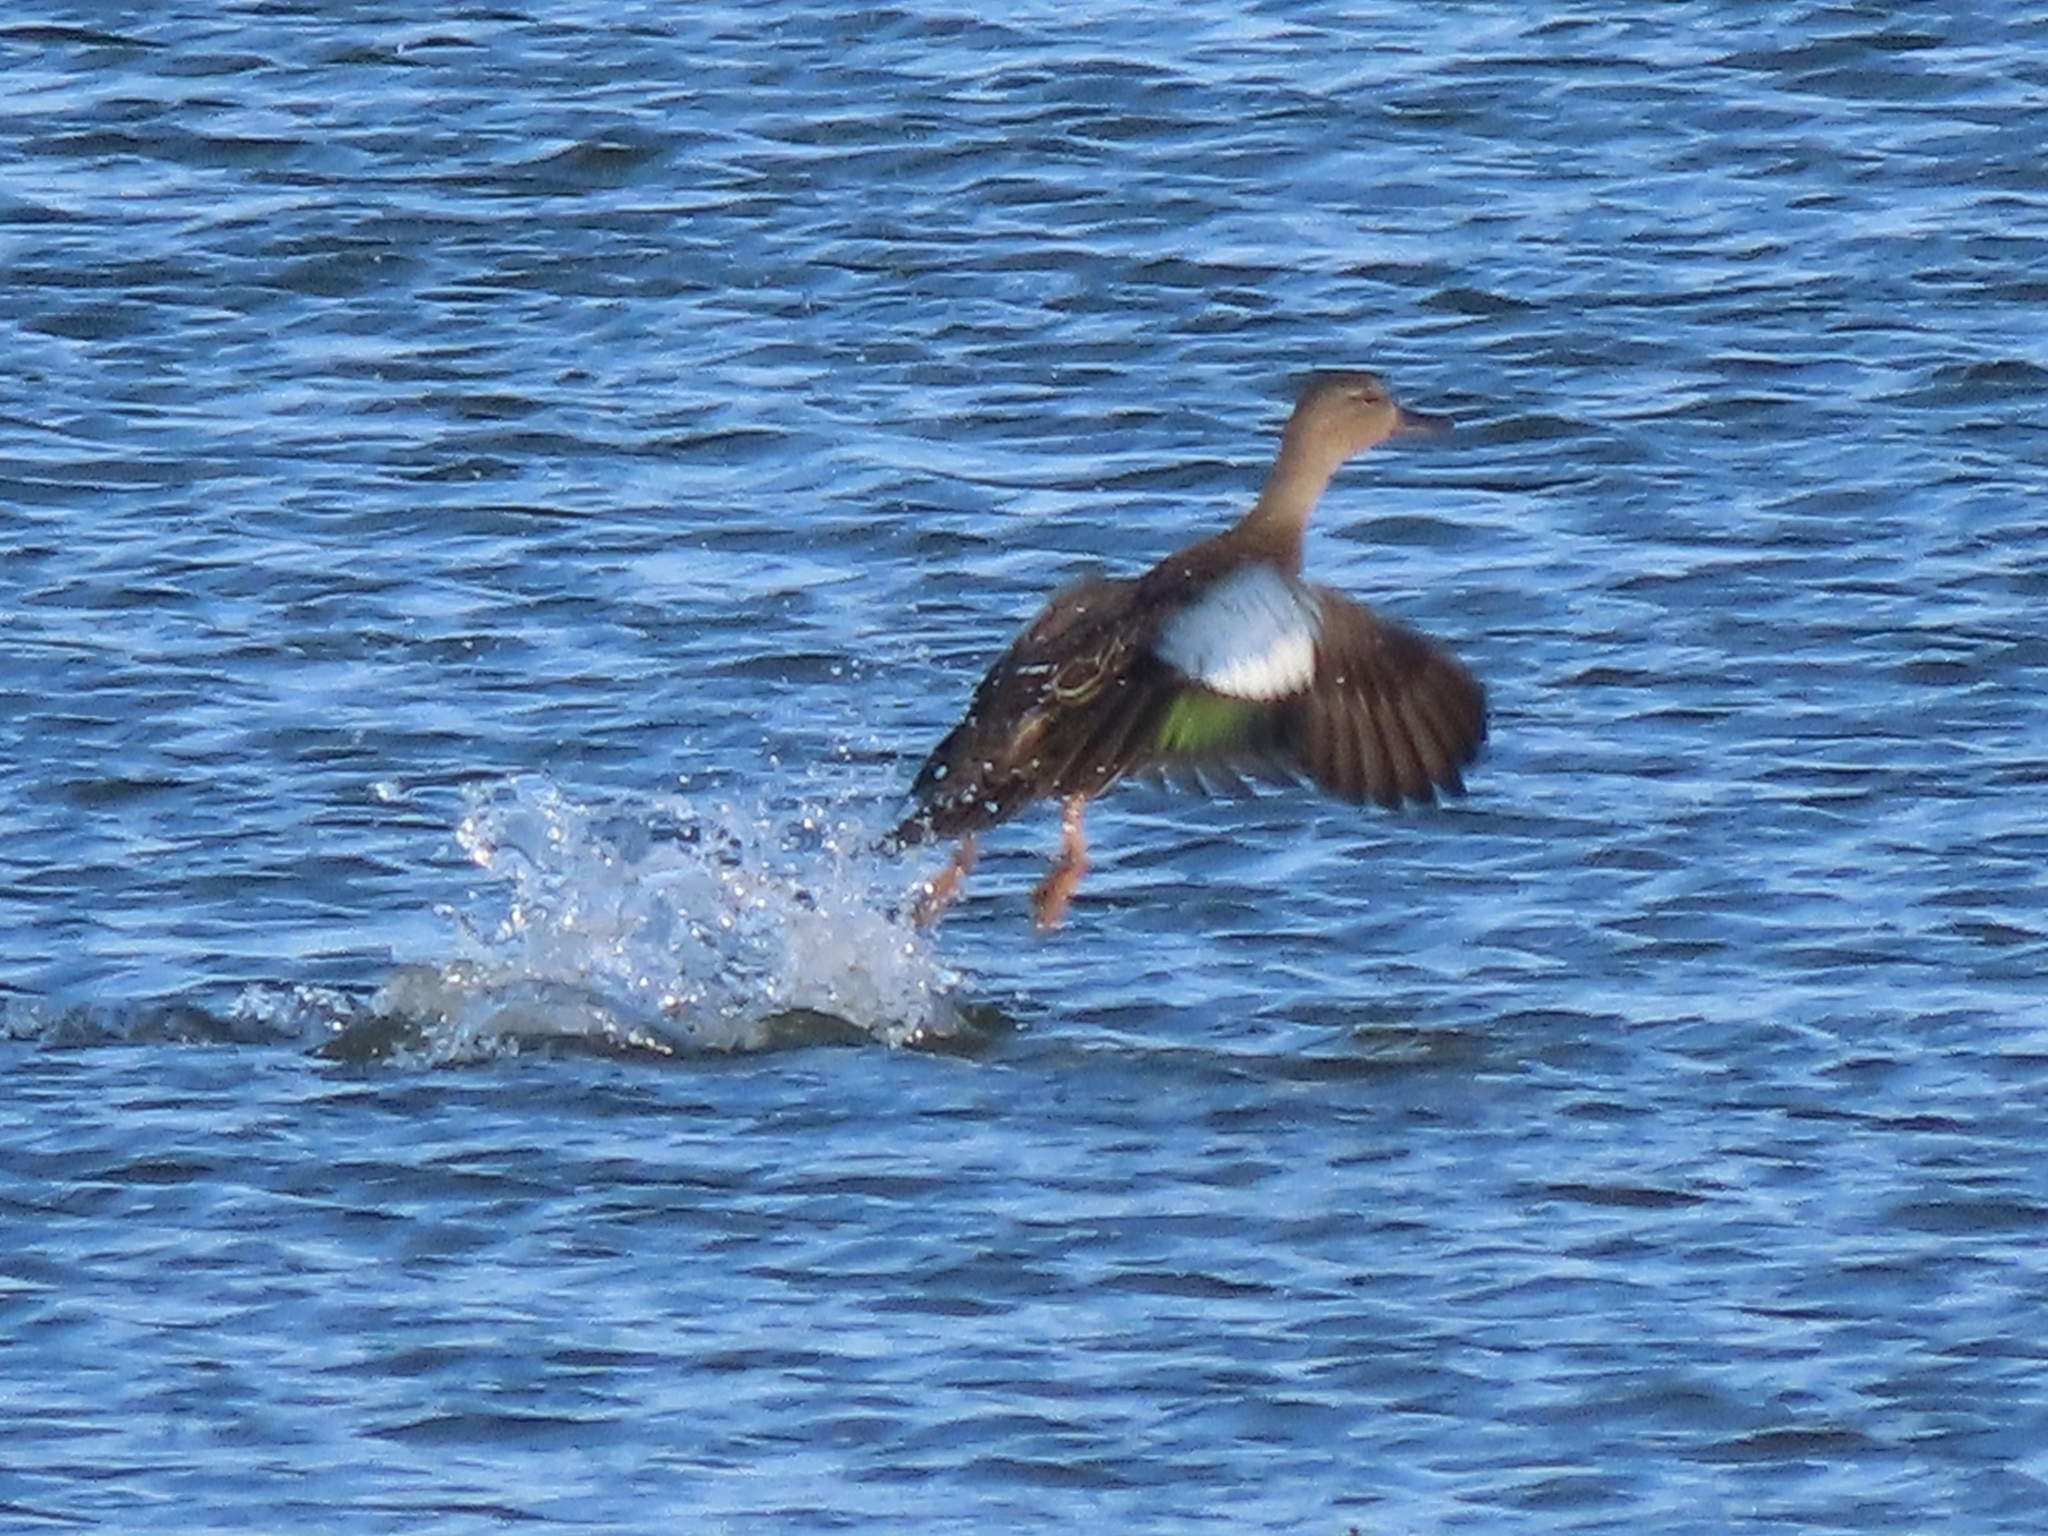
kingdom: Animalia
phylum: Chordata
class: Aves
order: Anseriformes
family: Anatidae
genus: Spatula
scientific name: Spatula discors
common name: Blue-winged teal
